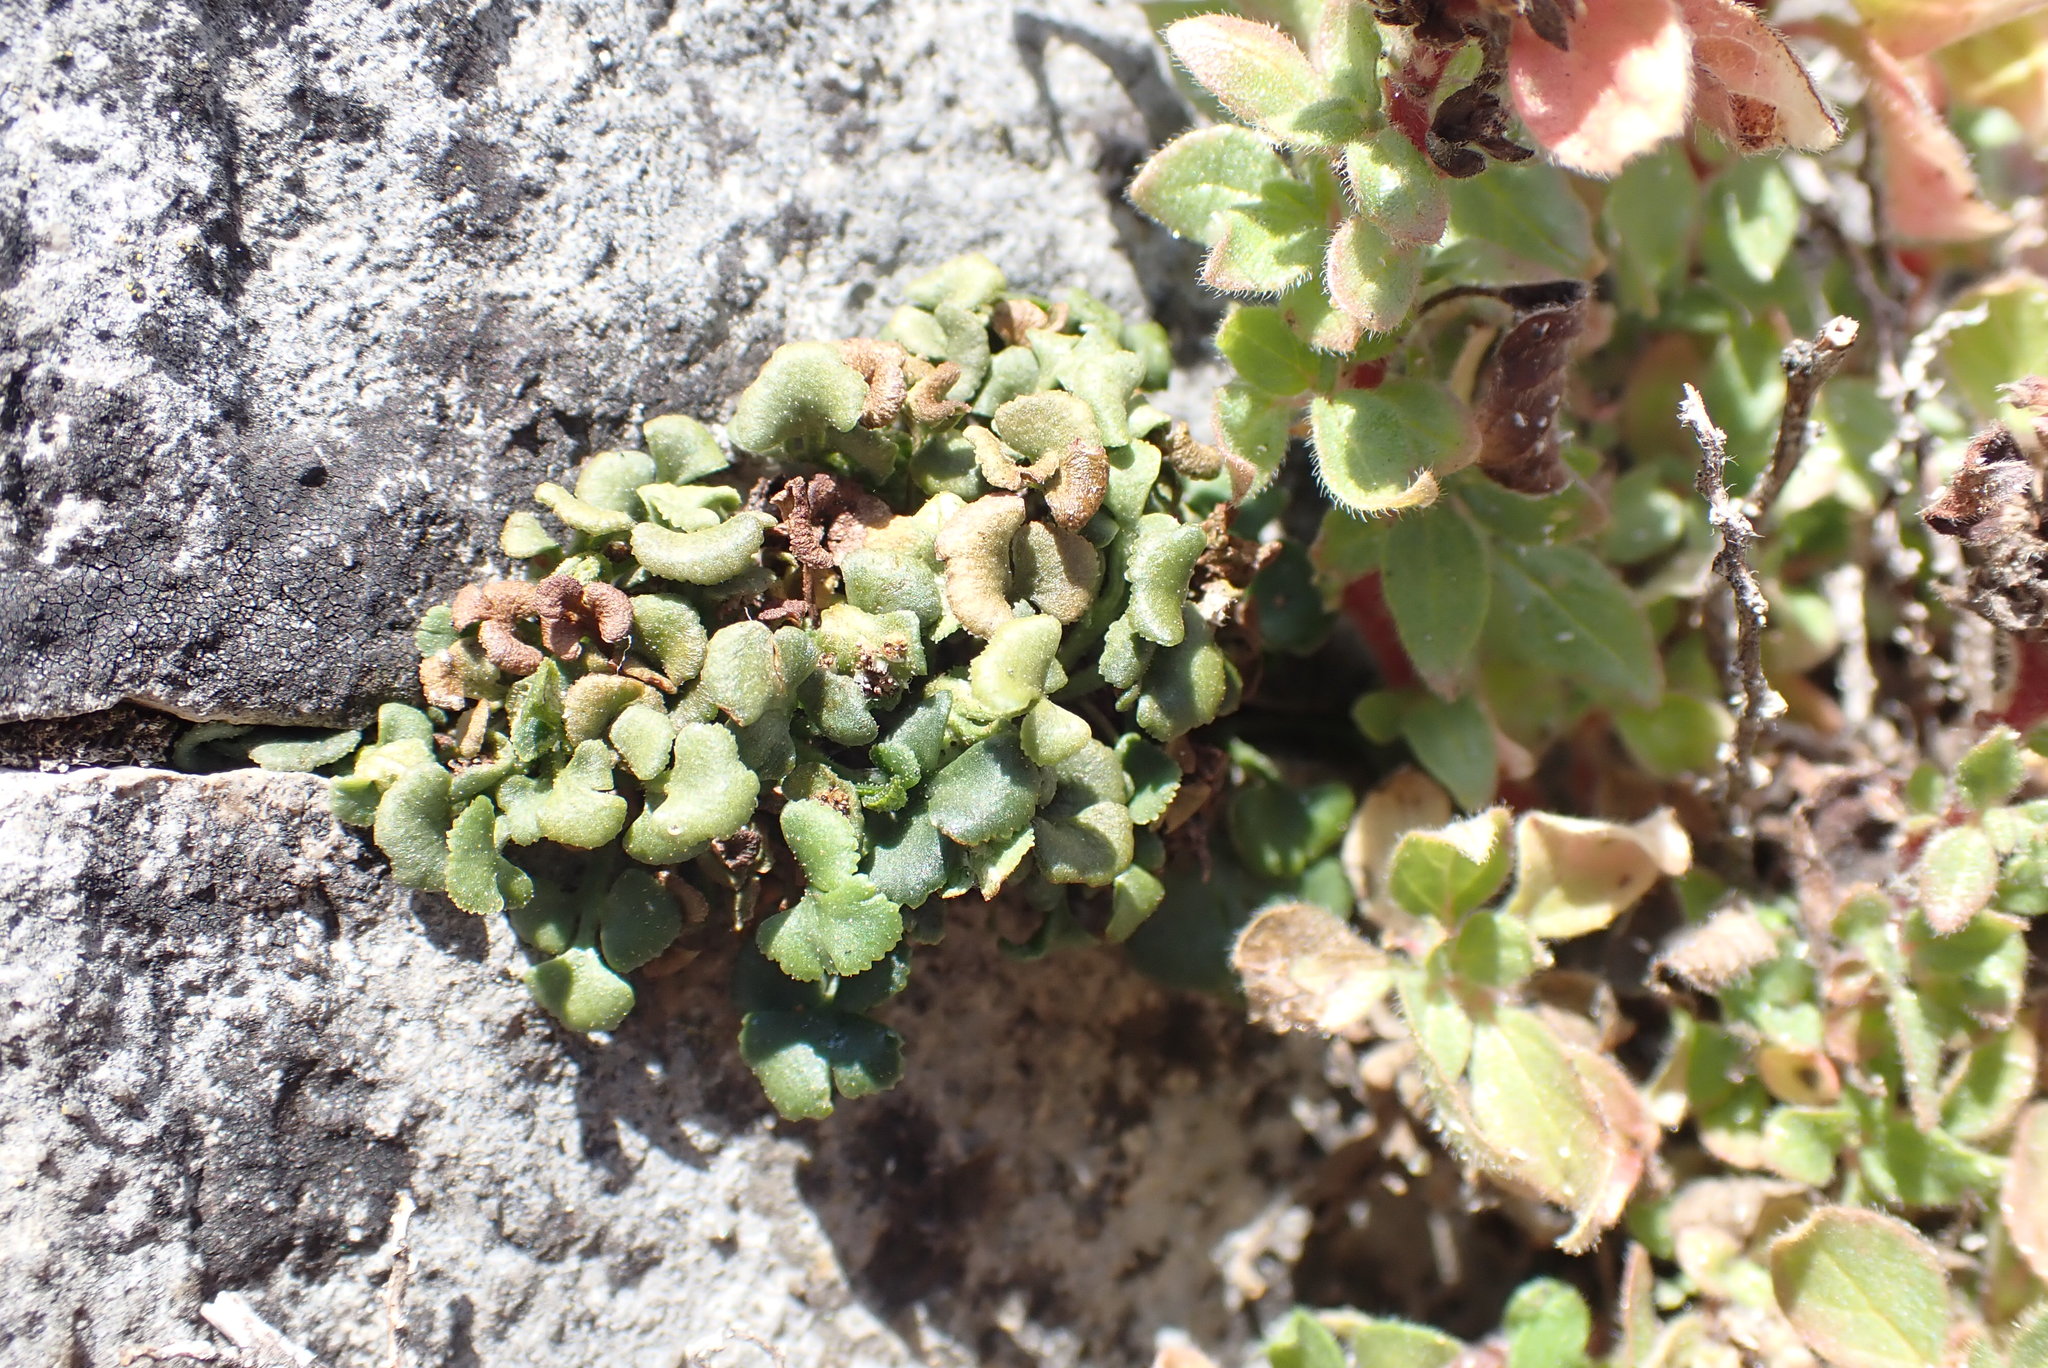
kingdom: Plantae
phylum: Tracheophyta
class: Polypodiopsida
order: Polypodiales
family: Aspleniaceae
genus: Asplenium
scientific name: Asplenium ruta-muraria
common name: Wall-rue
